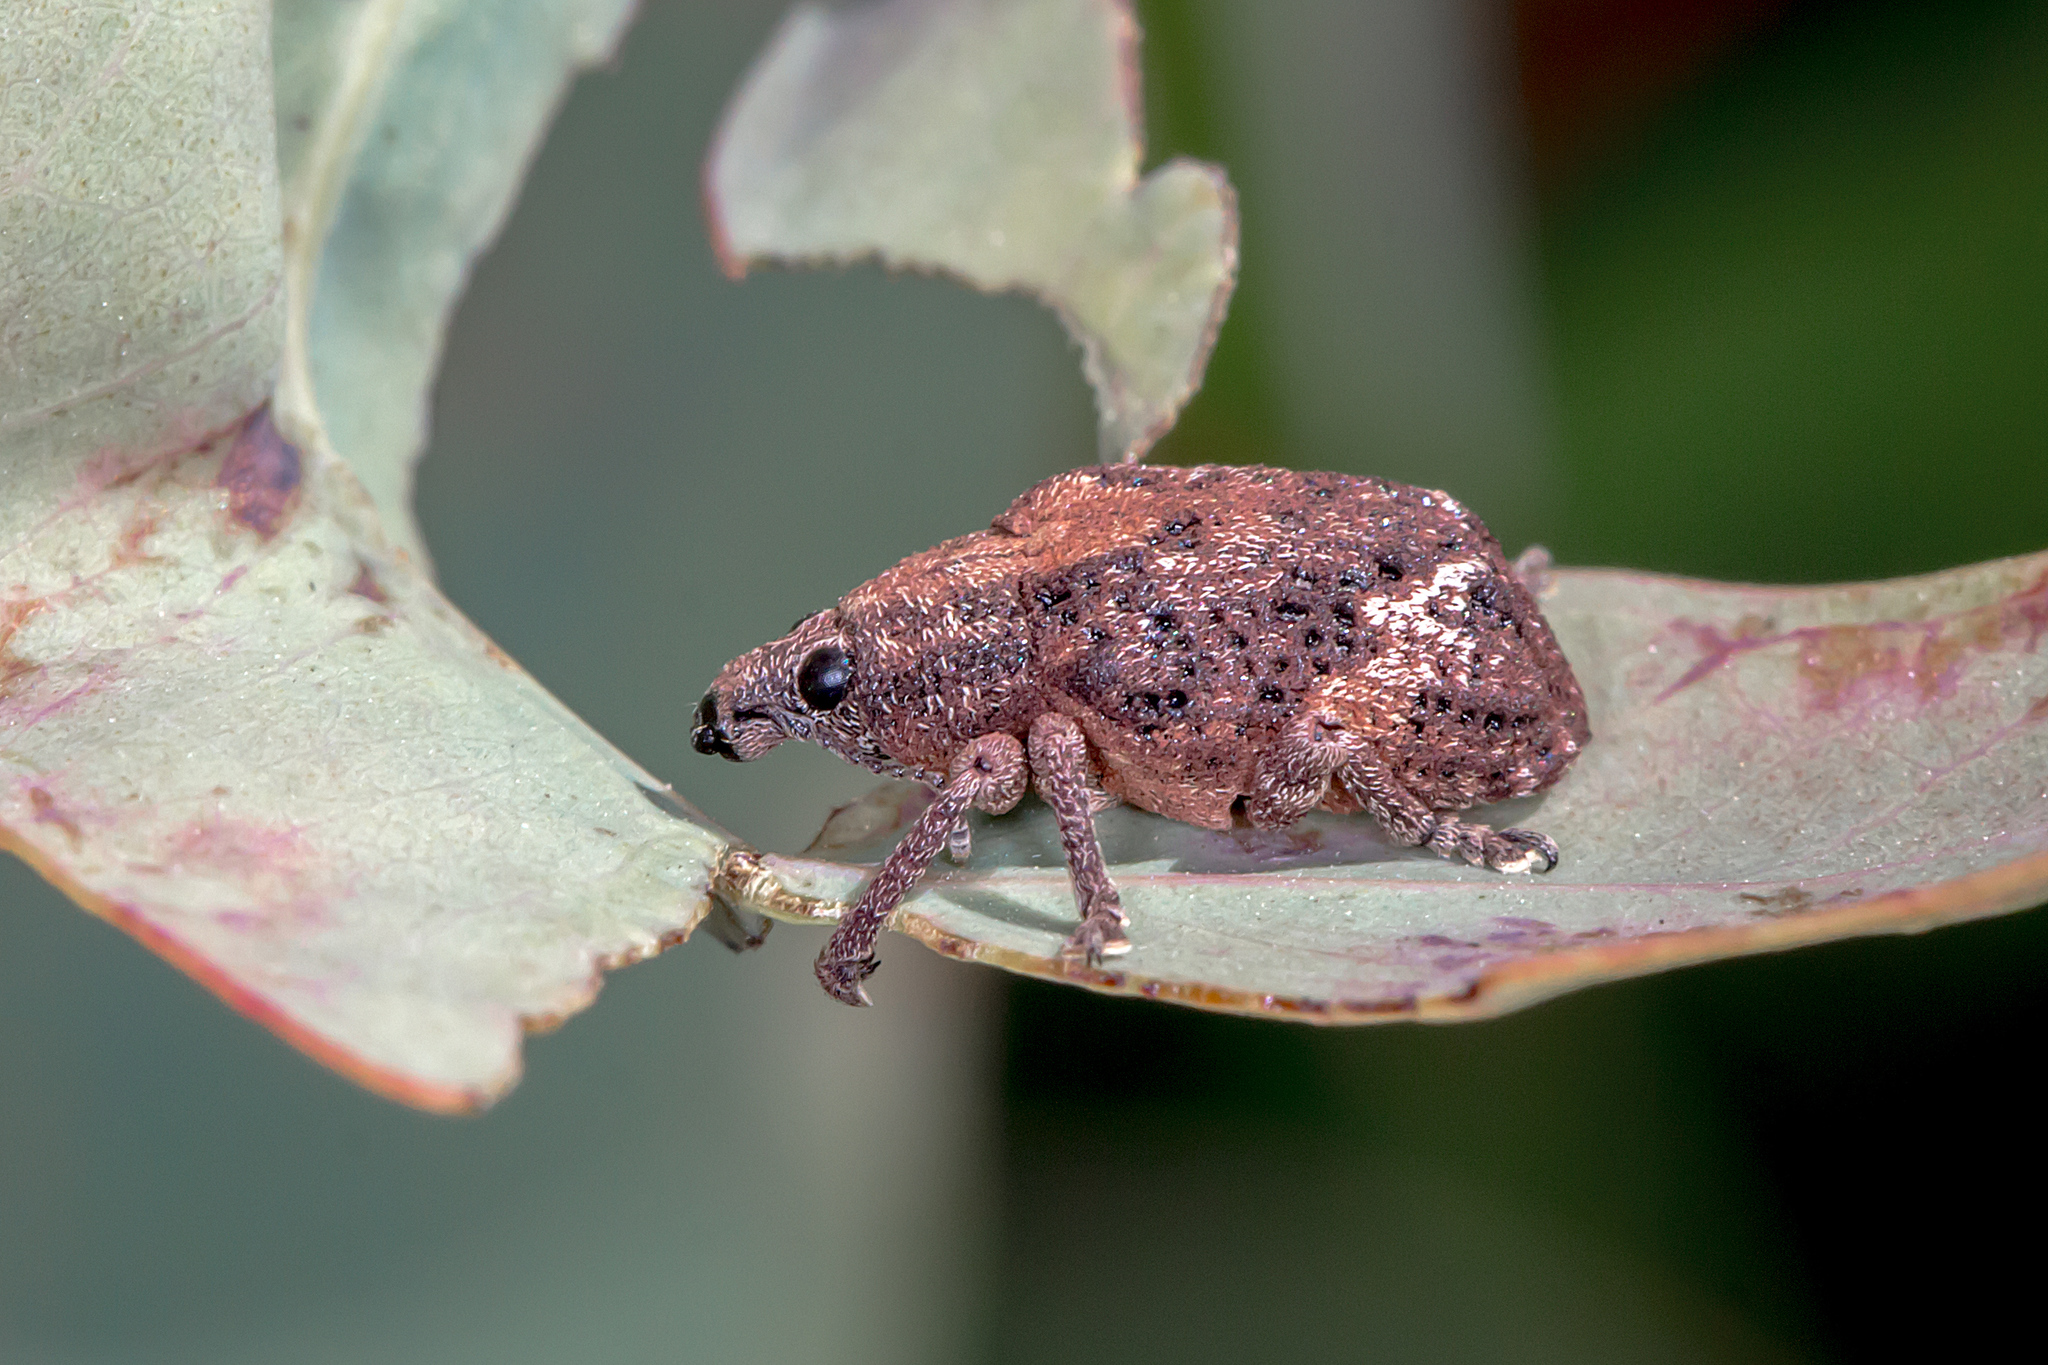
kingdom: Animalia
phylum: Arthropoda
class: Insecta
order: Coleoptera
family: Curculionidae
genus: Oxyops
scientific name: Oxyops fasciatus
